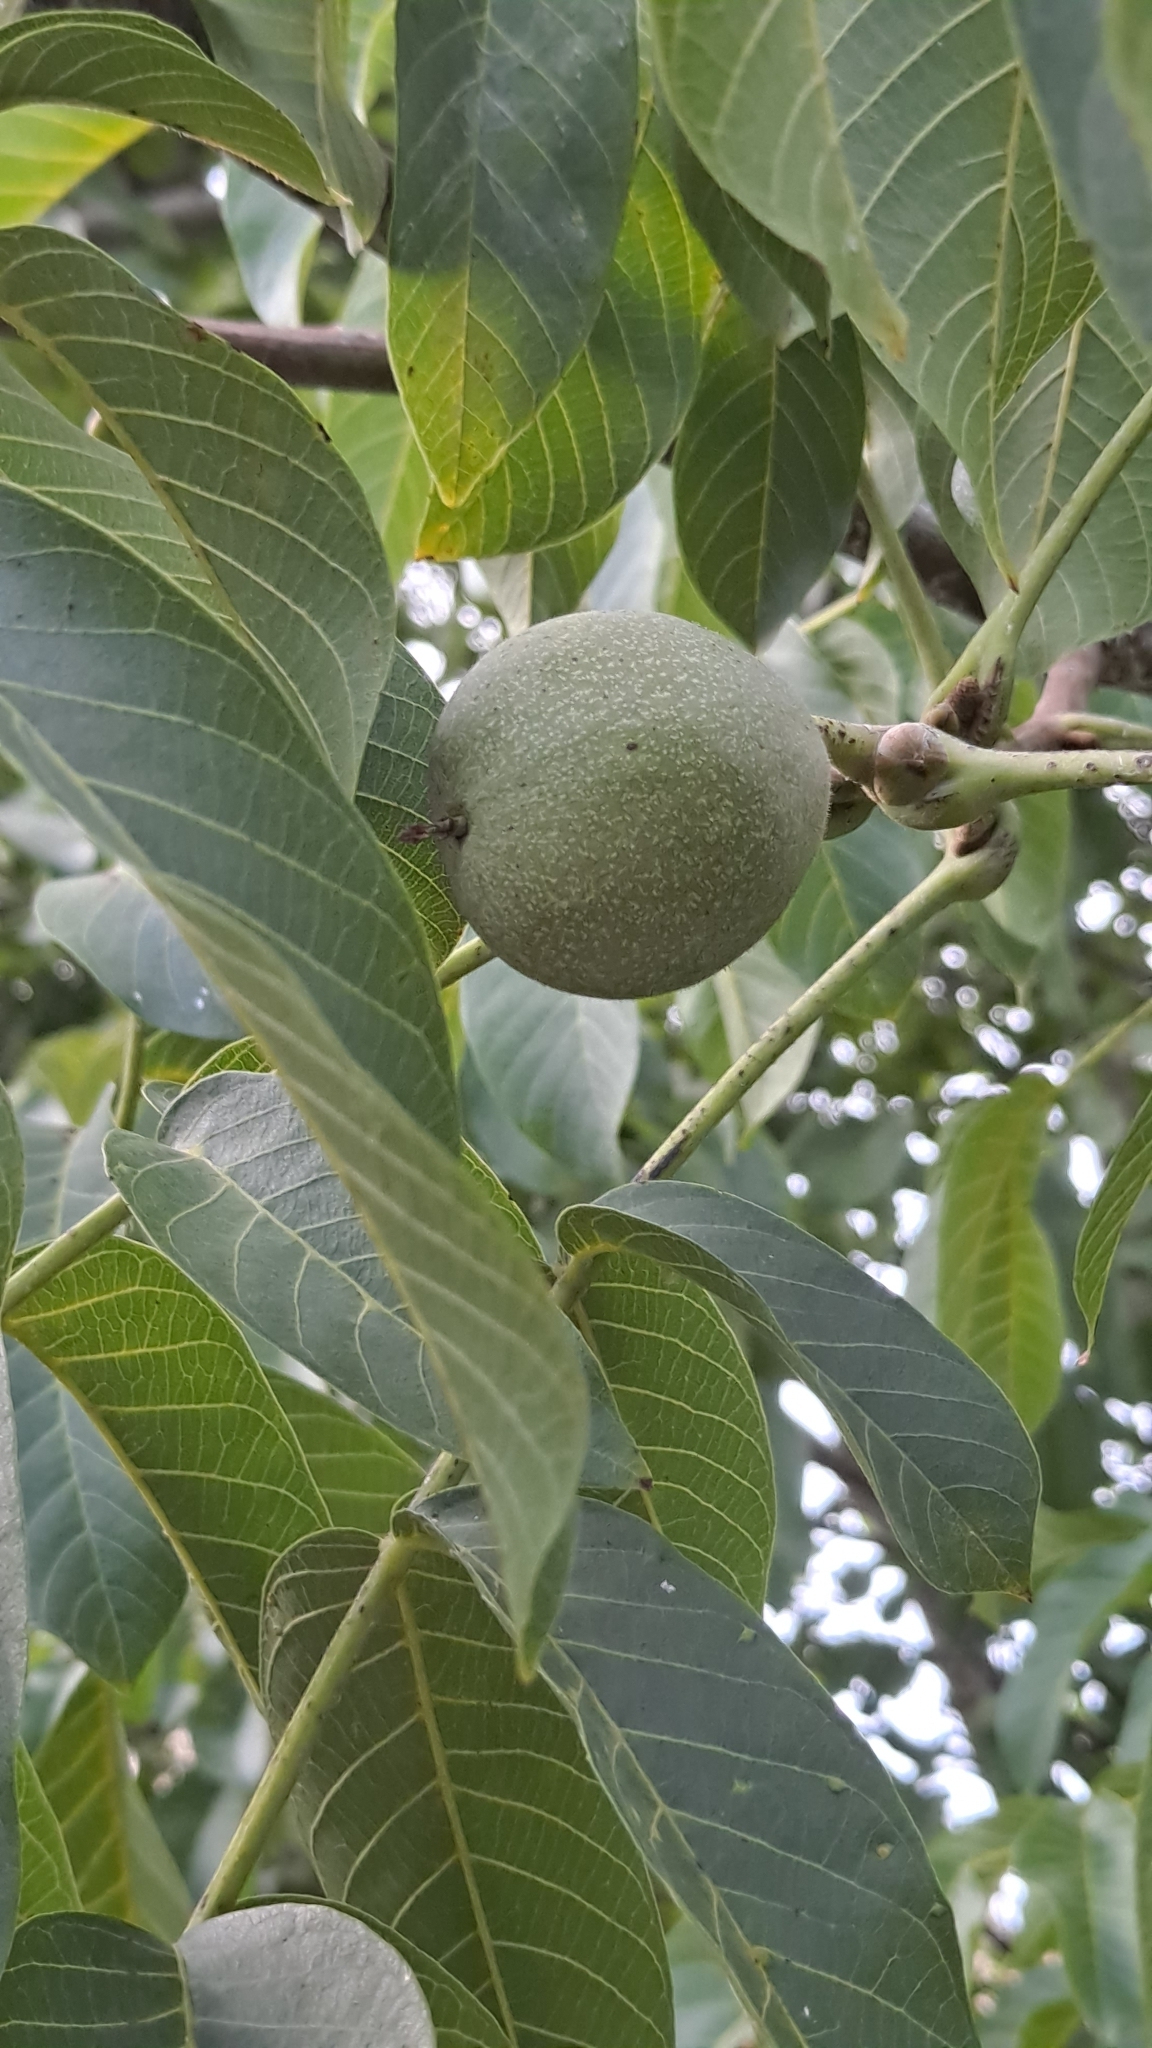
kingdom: Plantae
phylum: Tracheophyta
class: Magnoliopsida
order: Fagales
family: Juglandaceae
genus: Juglans
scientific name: Juglans regia
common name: Walnut
